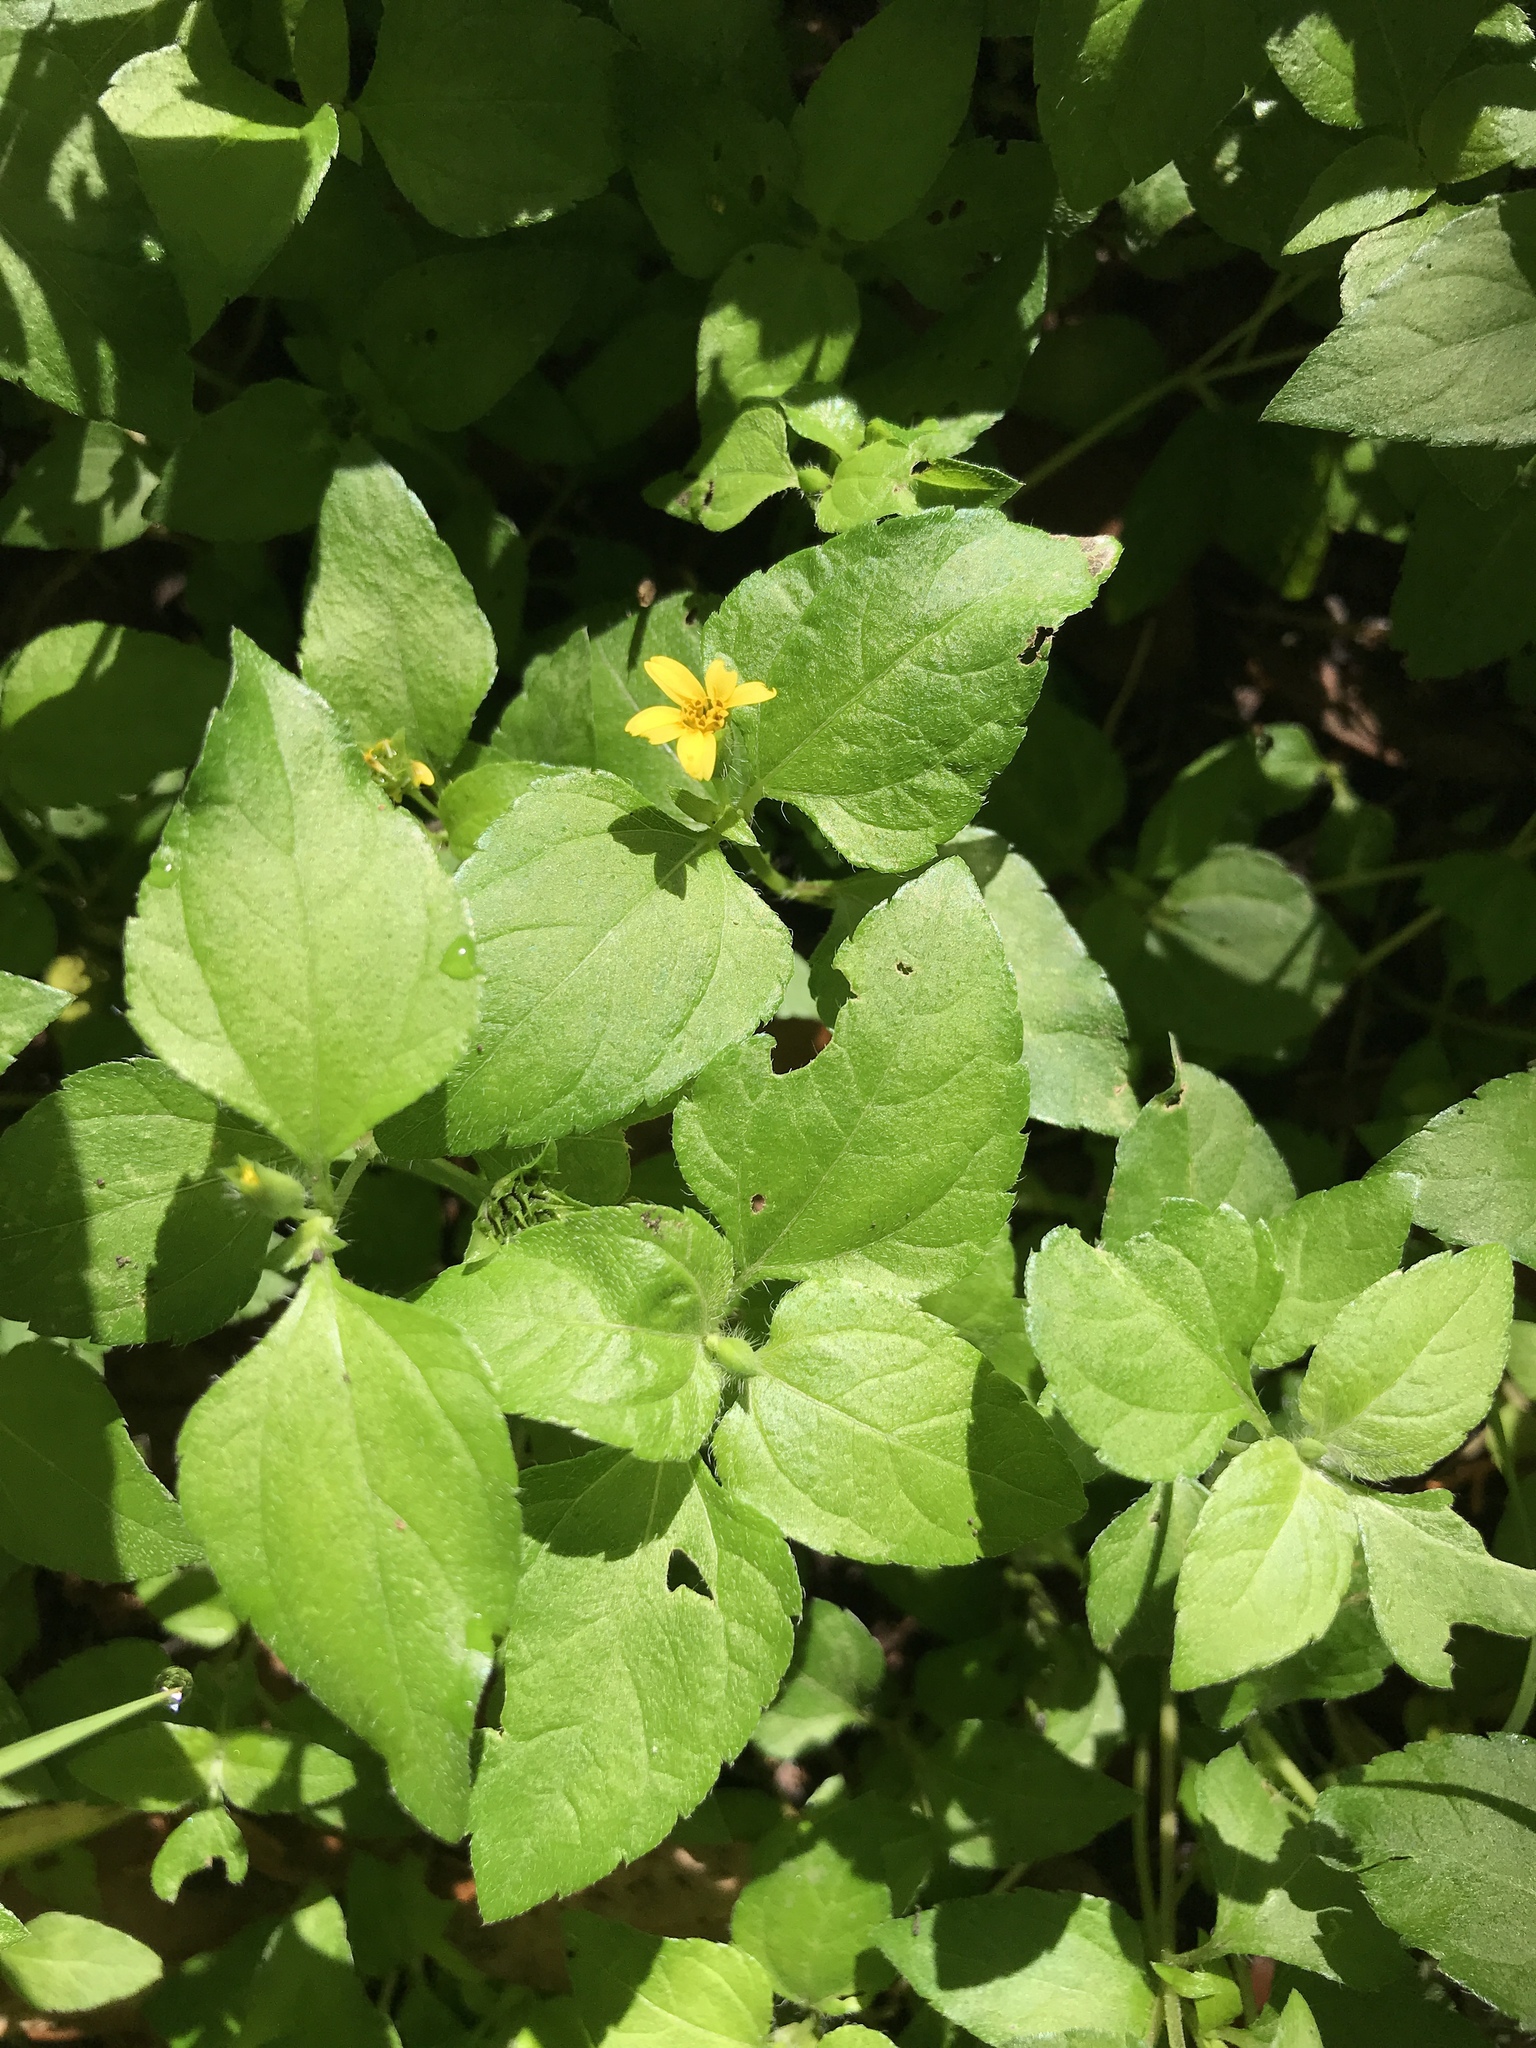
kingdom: Plantae
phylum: Tracheophyta
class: Magnoliopsida
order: Asterales
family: Asteraceae
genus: Calyptocarpus
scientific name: Calyptocarpus vialis
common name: Straggler daisy
